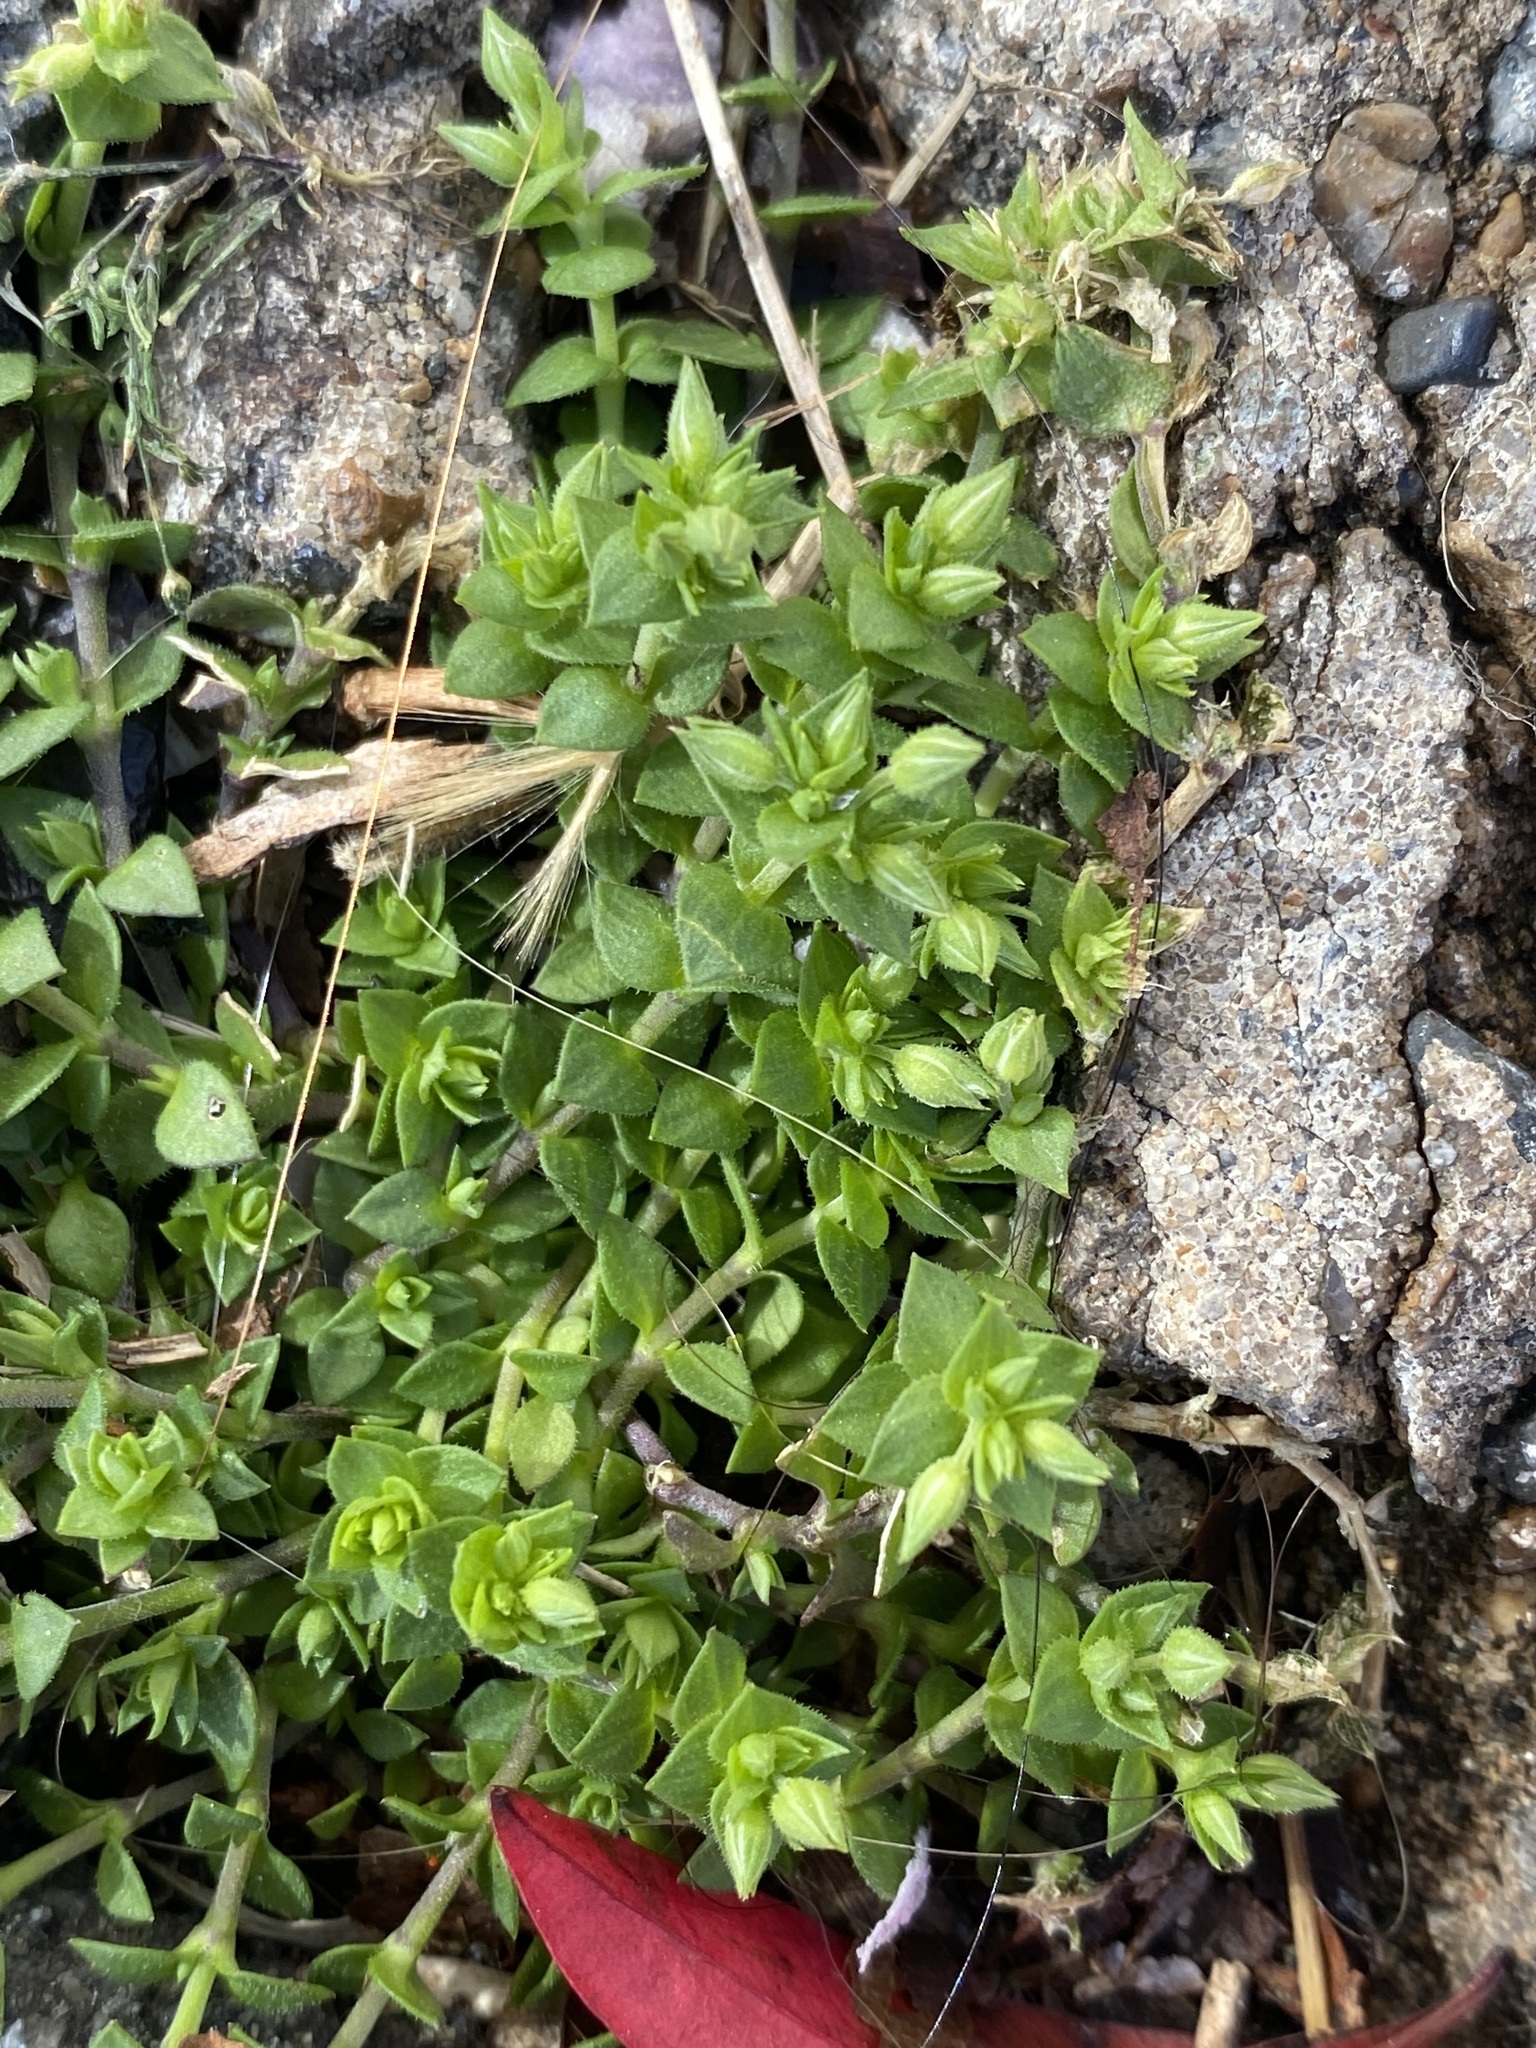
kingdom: Plantae
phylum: Tracheophyta
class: Magnoliopsida
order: Caryophyllales
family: Caryophyllaceae
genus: Arenaria
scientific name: Arenaria serpyllifolia
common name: Thyme-leaved sandwort
